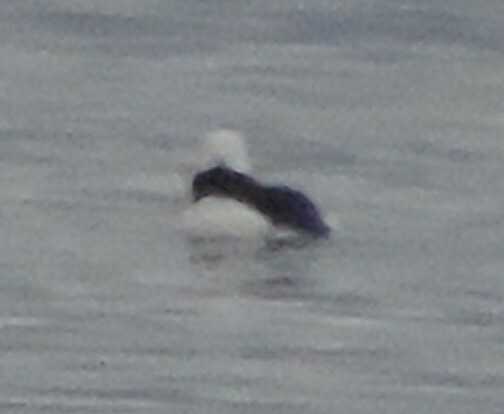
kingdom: Animalia
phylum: Chordata
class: Aves
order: Anseriformes
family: Anatidae
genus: Bucephala
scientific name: Bucephala albeola
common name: Bufflehead
